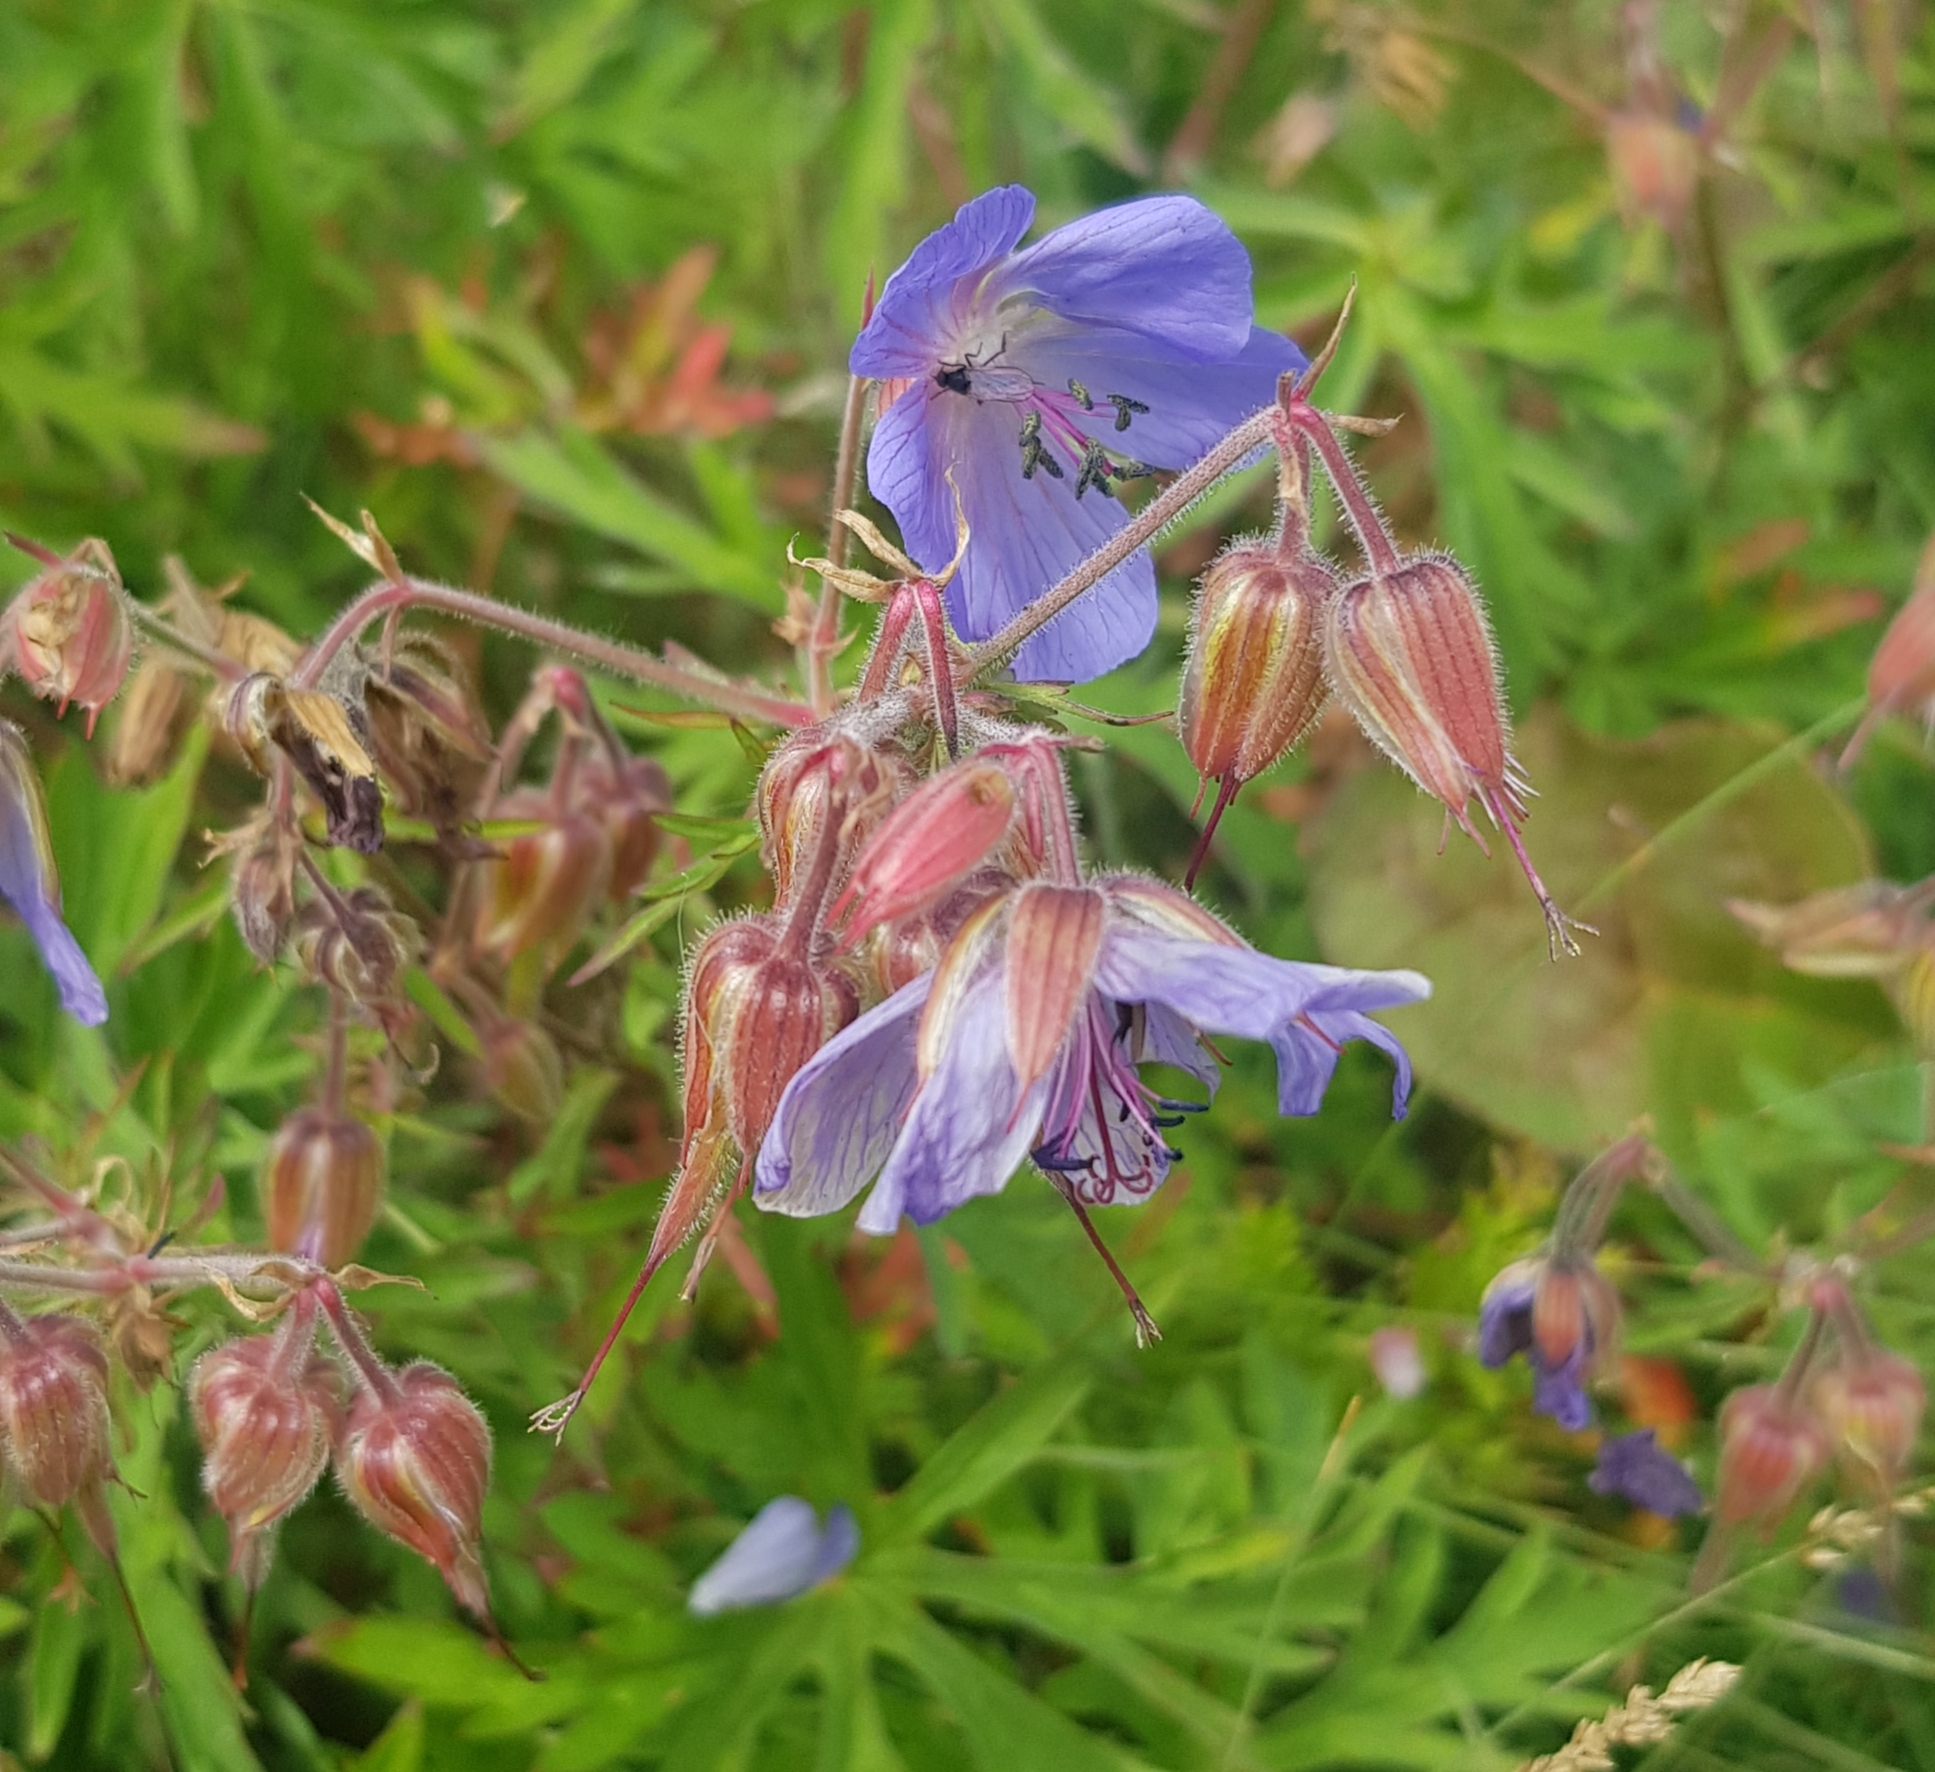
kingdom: Plantae
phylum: Tracheophyta
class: Magnoliopsida
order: Geraniales
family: Geraniaceae
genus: Geranium
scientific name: Geranium pratense
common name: Meadow crane's-bill
